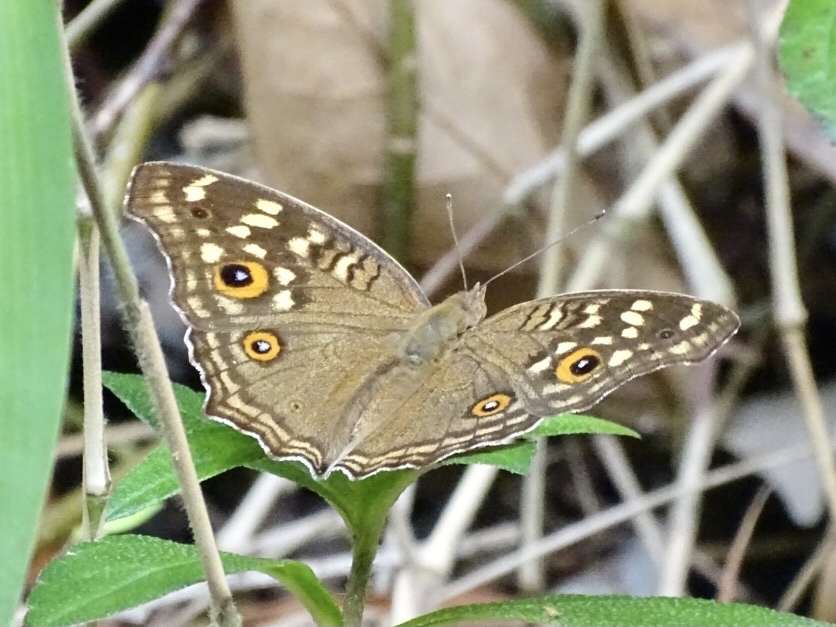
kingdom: Animalia
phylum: Arthropoda
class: Insecta
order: Lepidoptera
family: Nymphalidae
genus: Junonia
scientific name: Junonia lemonias
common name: Lemon pansy
